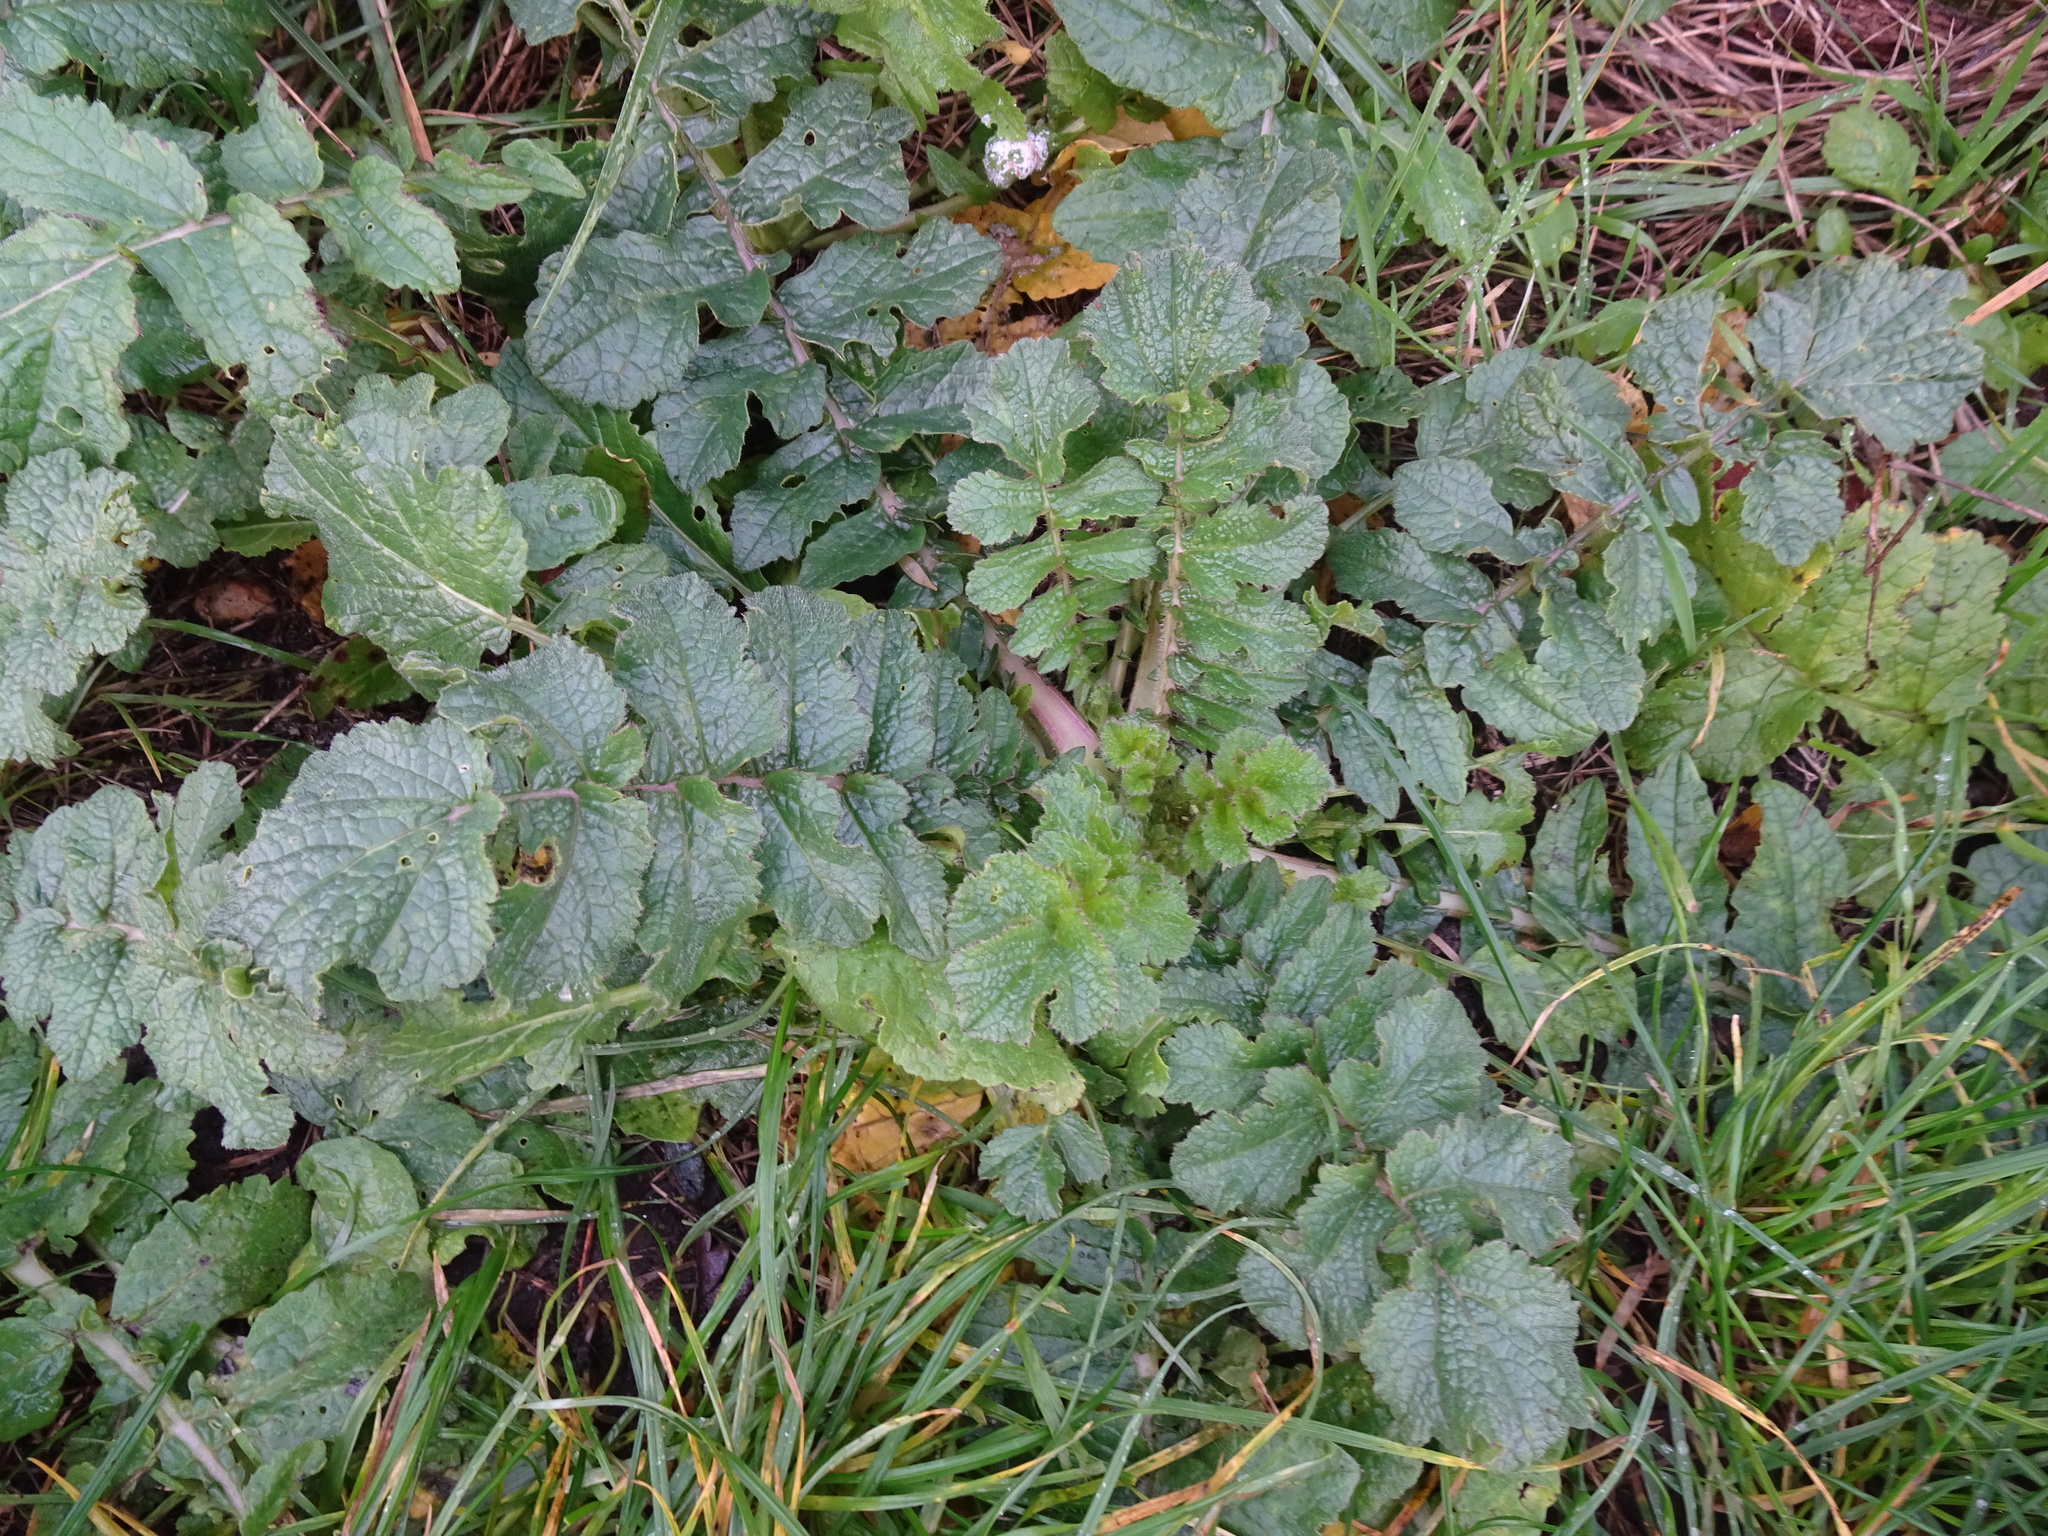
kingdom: Plantae
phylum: Tracheophyta
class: Magnoliopsida
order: Brassicales
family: Brassicaceae
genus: Raphanus
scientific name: Raphanus raphanistrum
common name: Wild radish
